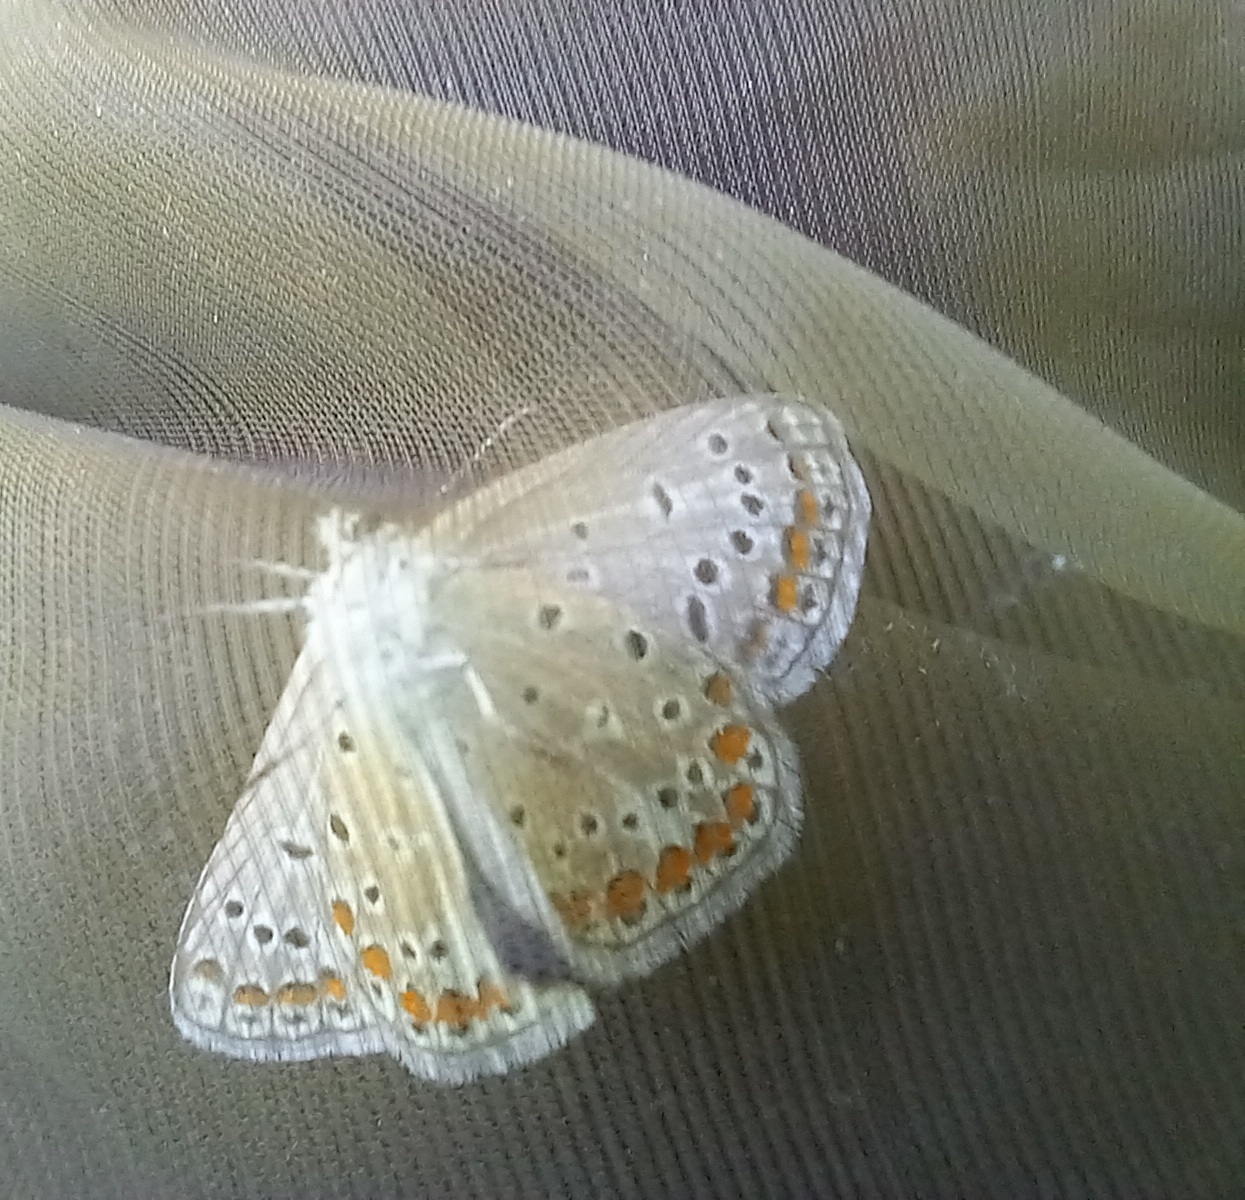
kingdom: Animalia
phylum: Arthropoda
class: Insecta
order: Lepidoptera
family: Lycaenidae
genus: Polyommatus
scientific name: Polyommatus icarus
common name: Common blue
